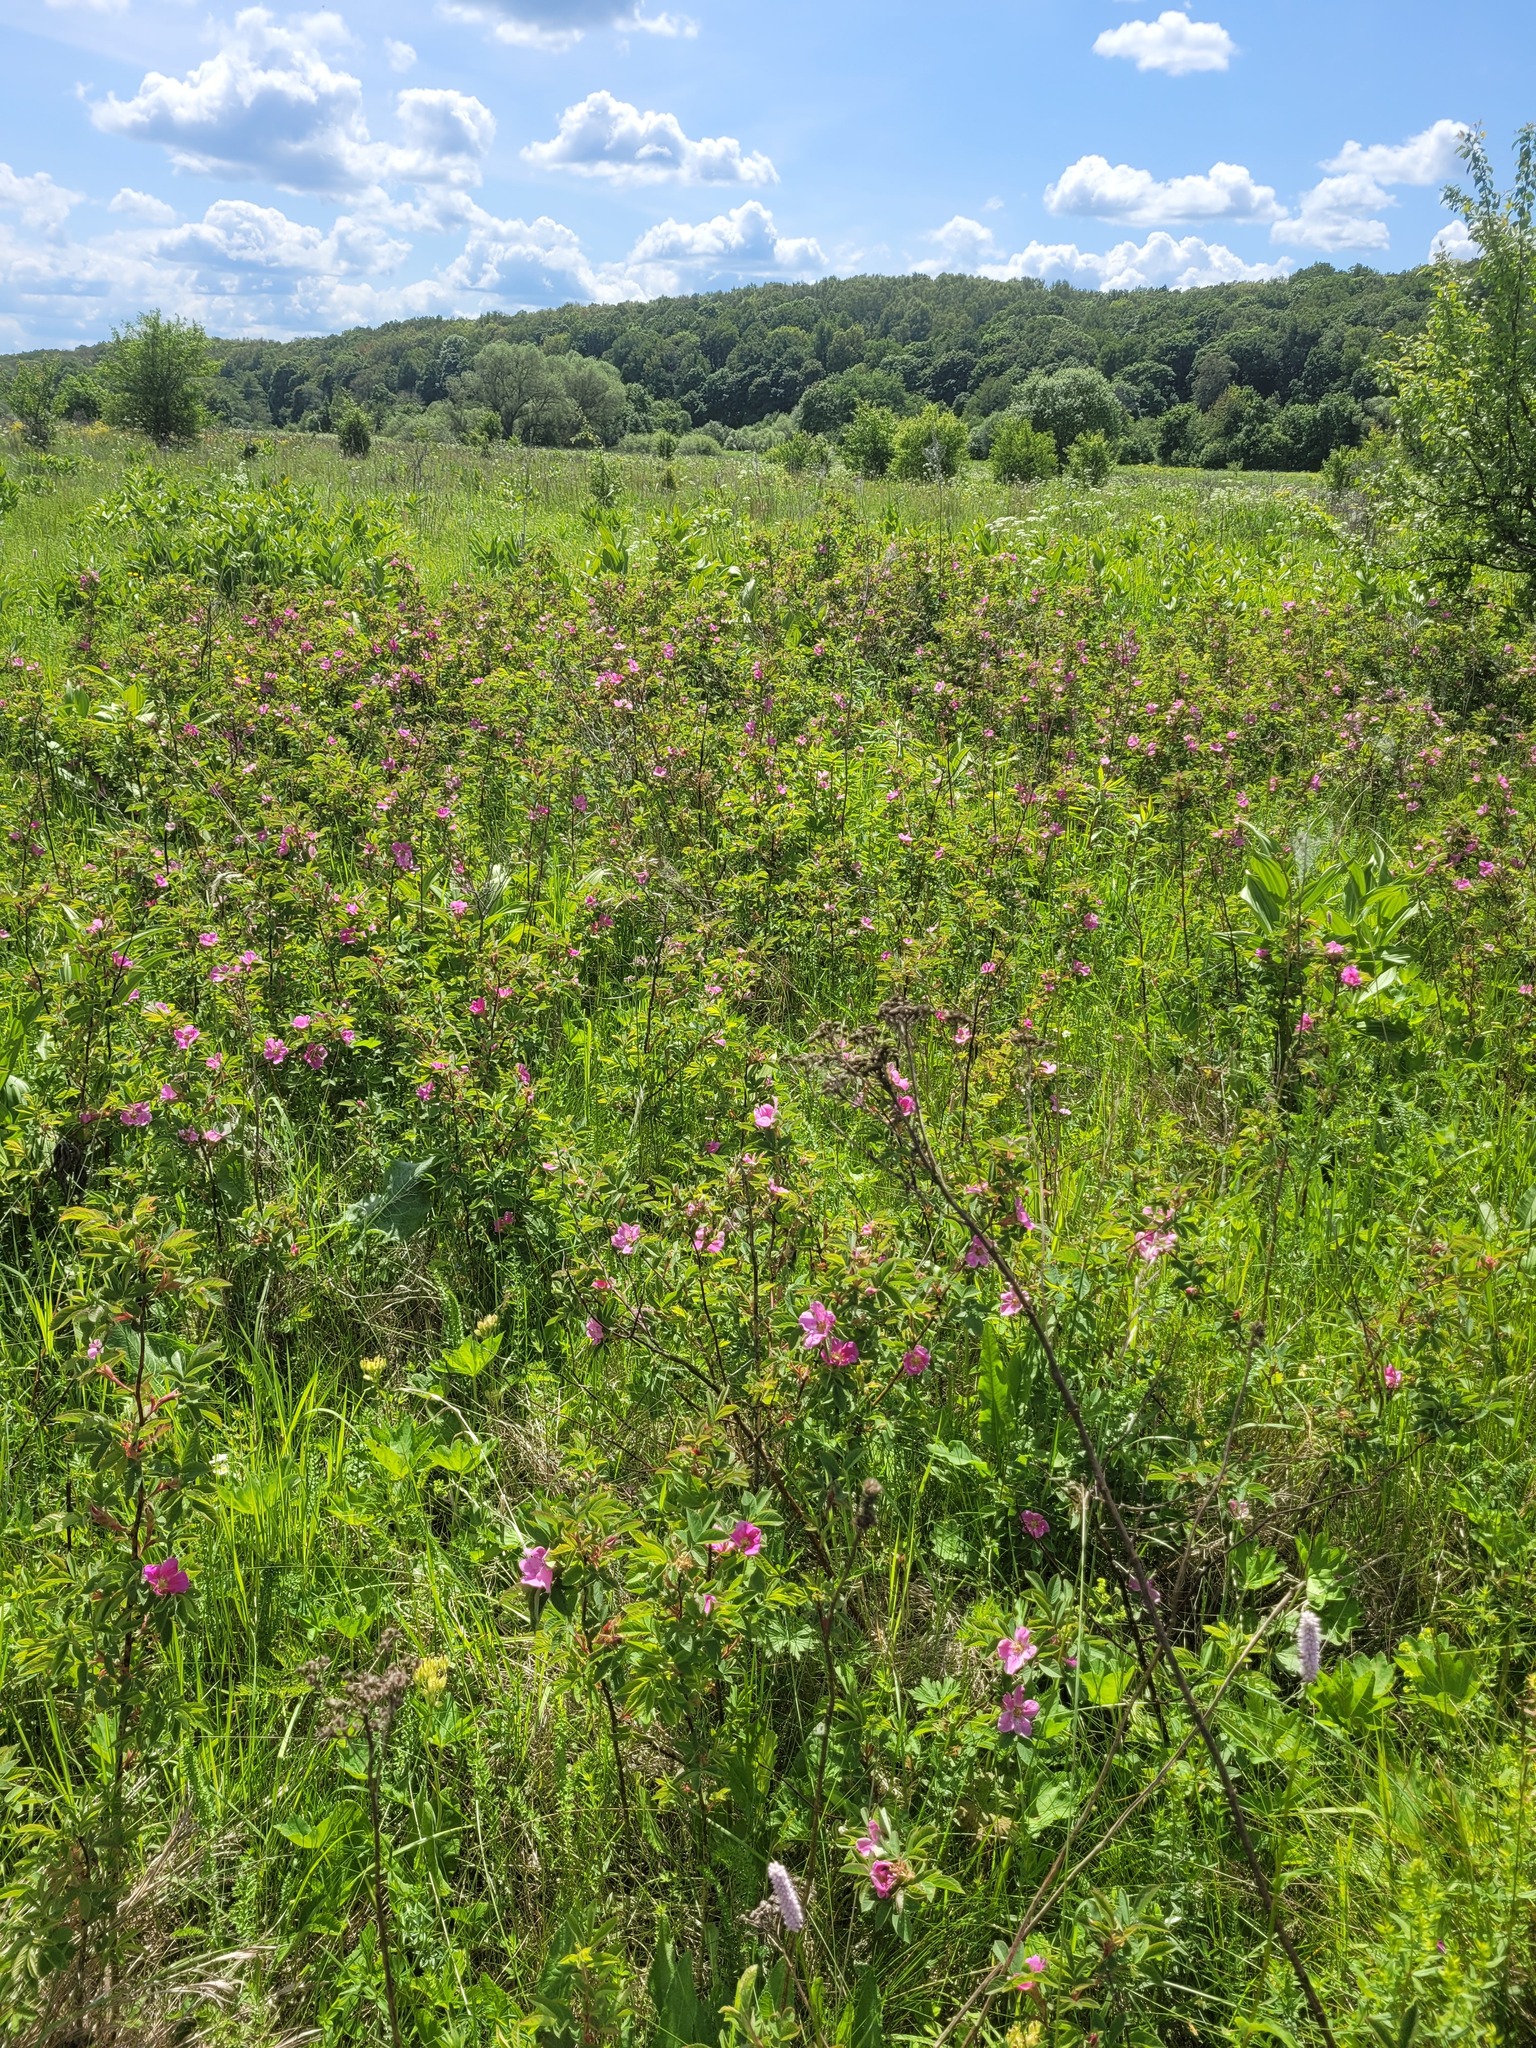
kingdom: Plantae
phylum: Tracheophyta
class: Magnoliopsida
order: Rosales
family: Rosaceae
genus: Rosa
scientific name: Rosa majalis
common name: Cinnamon rose
